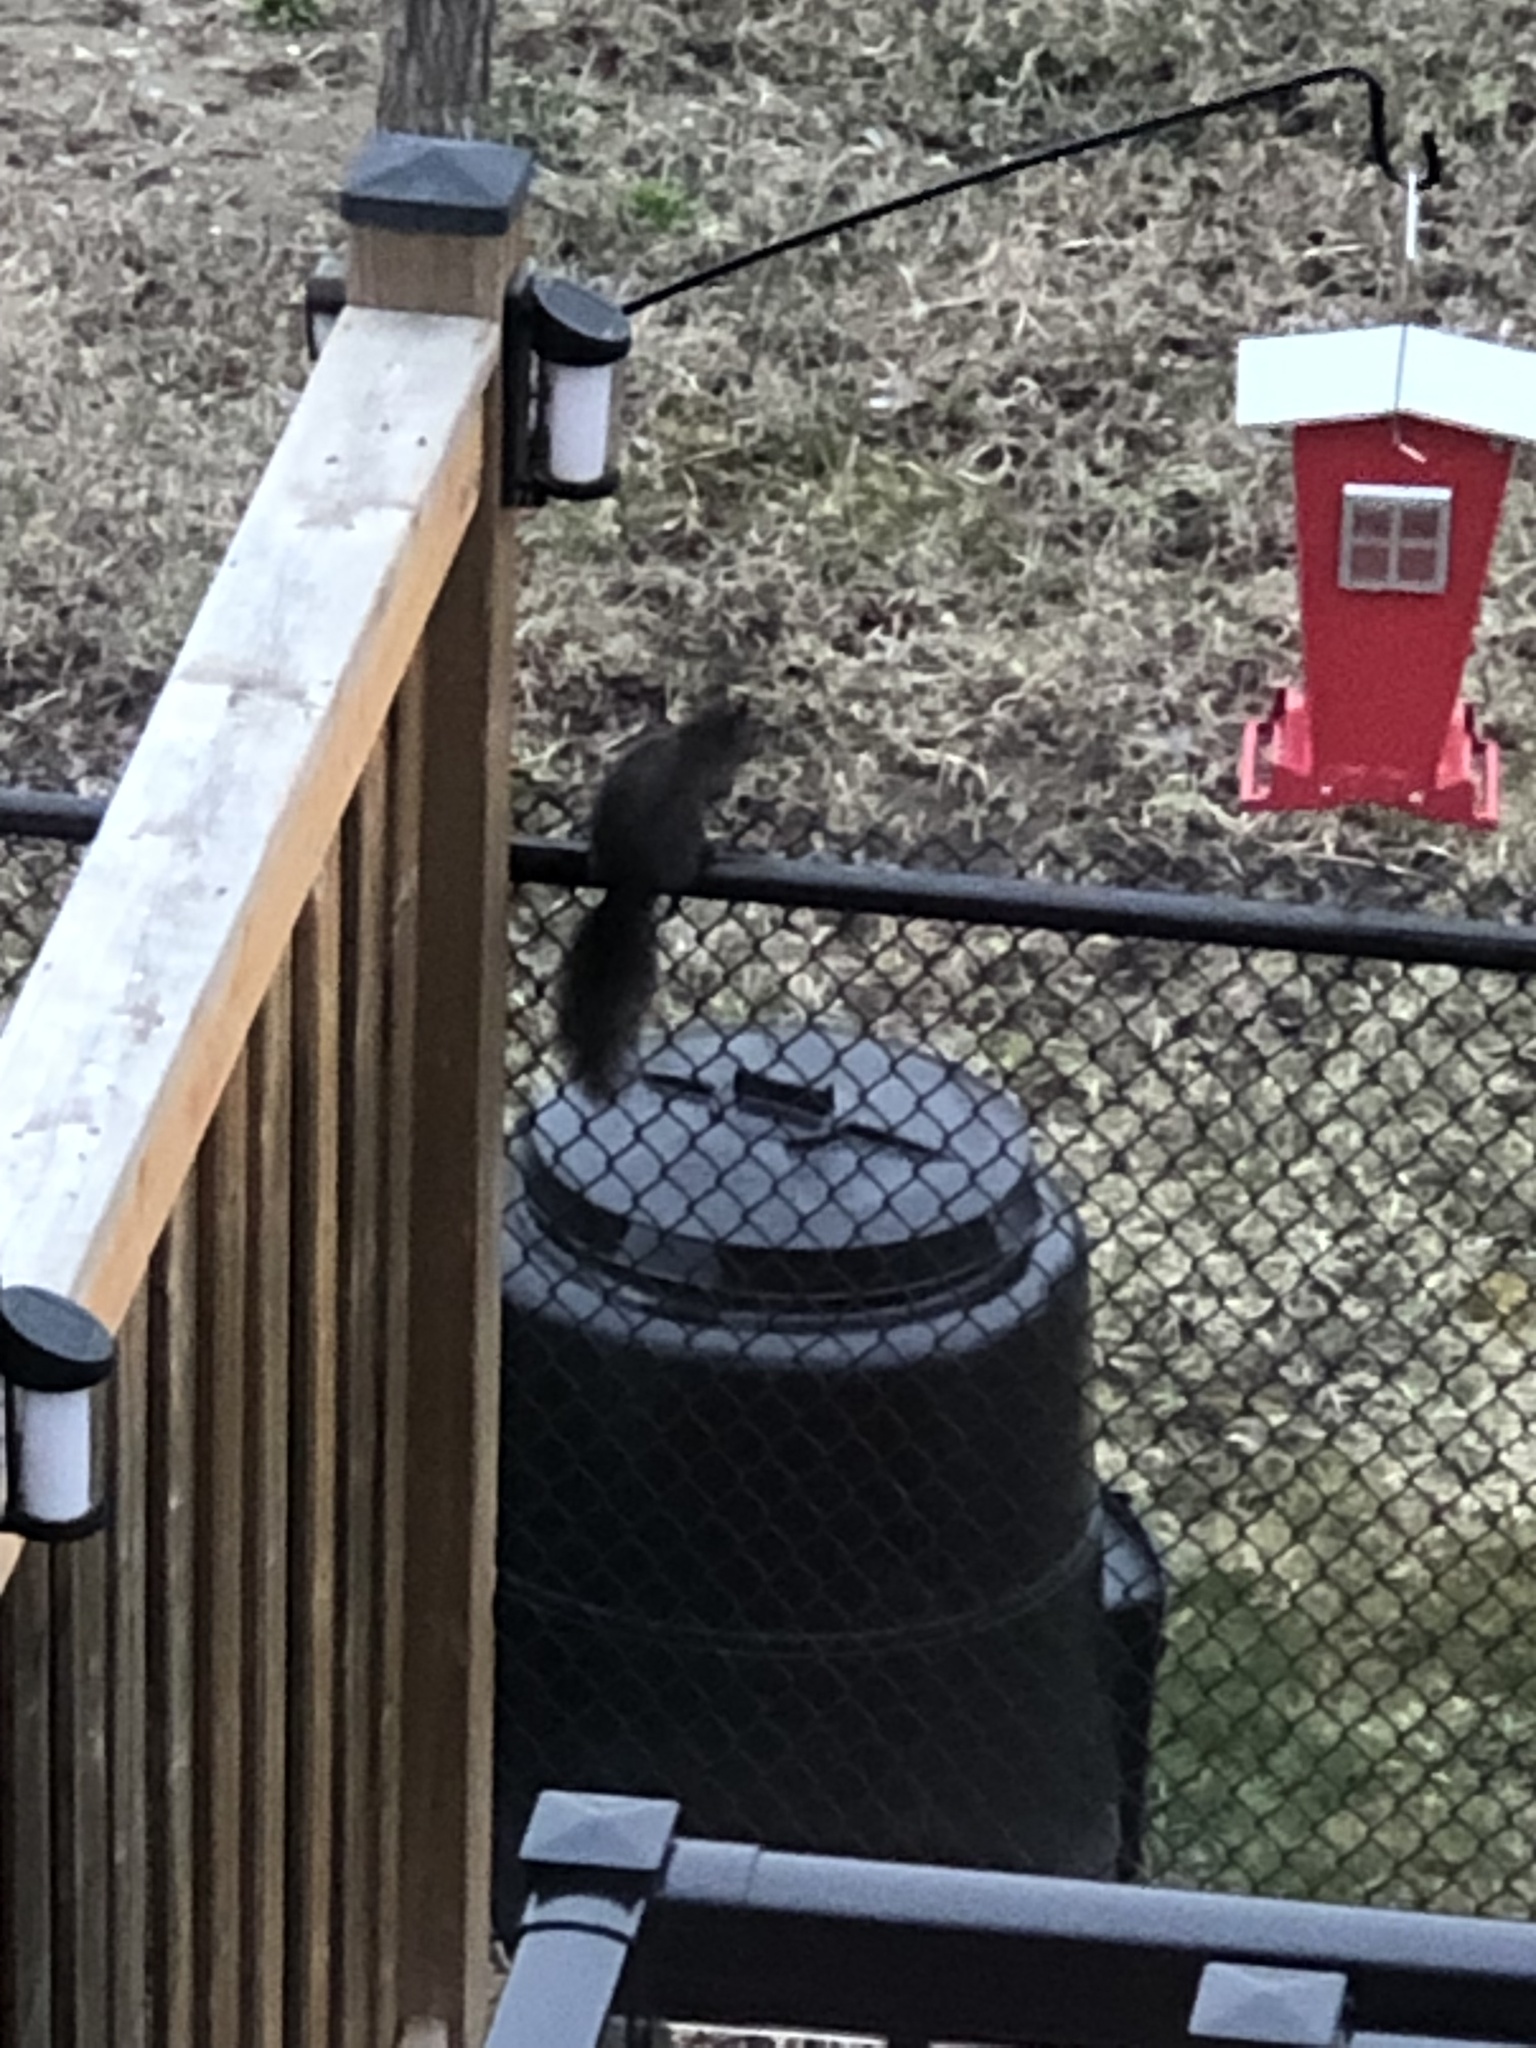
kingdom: Animalia
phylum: Chordata
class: Mammalia
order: Rodentia
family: Sciuridae
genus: Sciurus
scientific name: Sciurus carolinensis
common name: Eastern gray squirrel
